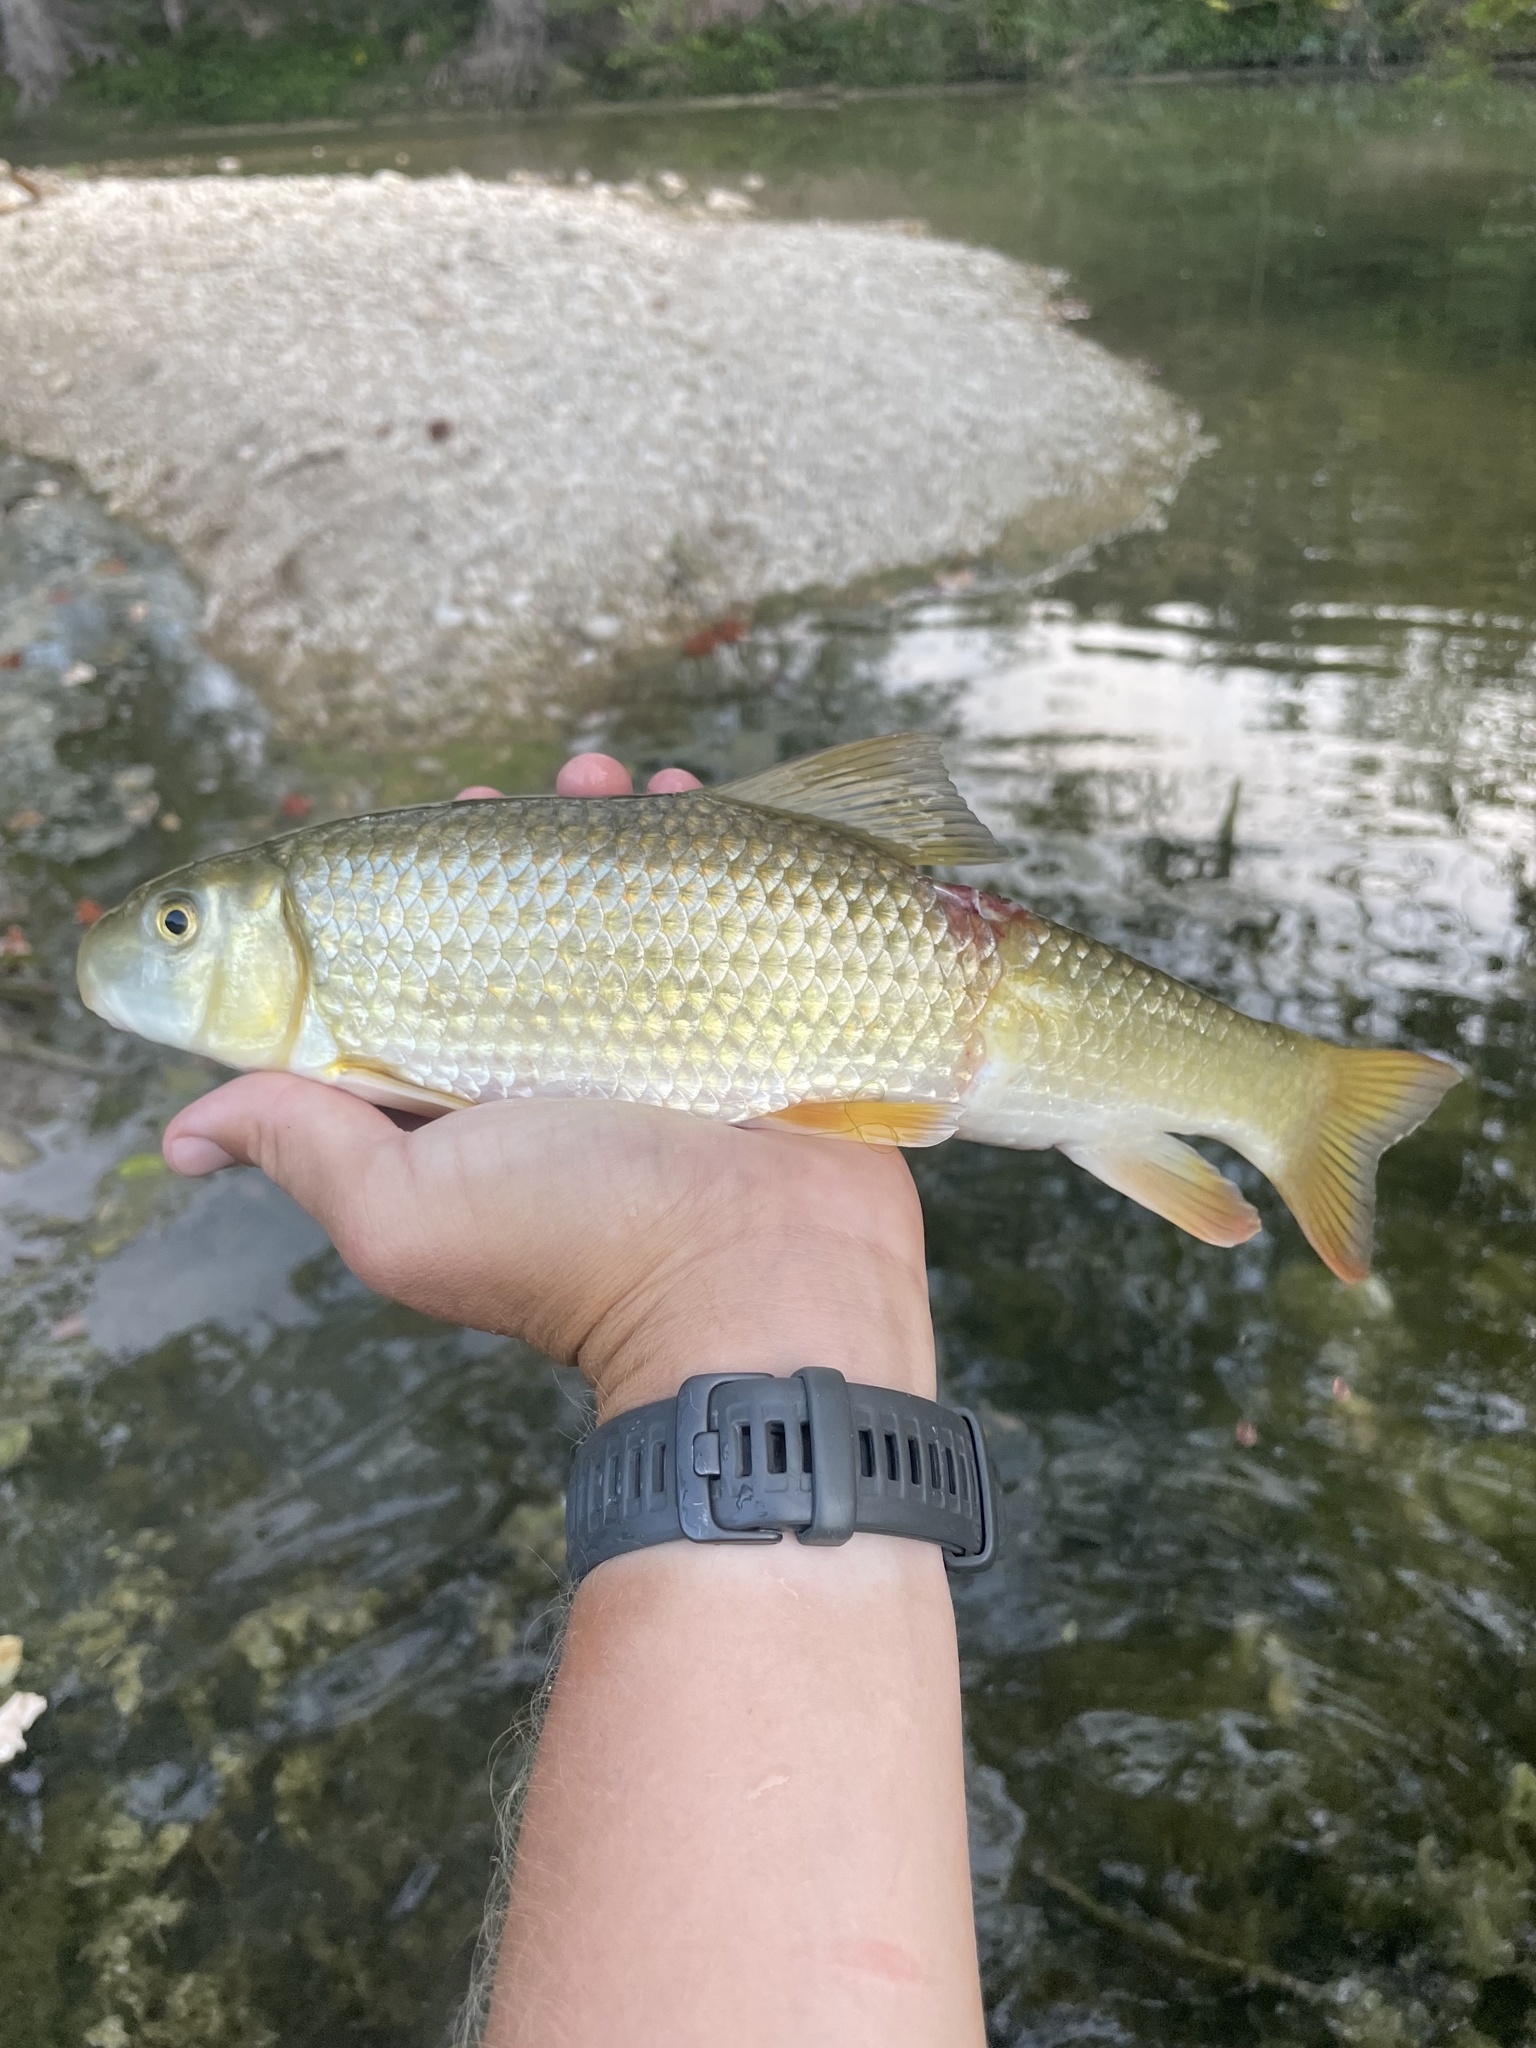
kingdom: Animalia
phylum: Chordata
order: Cypriniformes
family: Catostomidae
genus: Moxostoma
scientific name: Moxostoma congestum
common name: Gray redhorse
